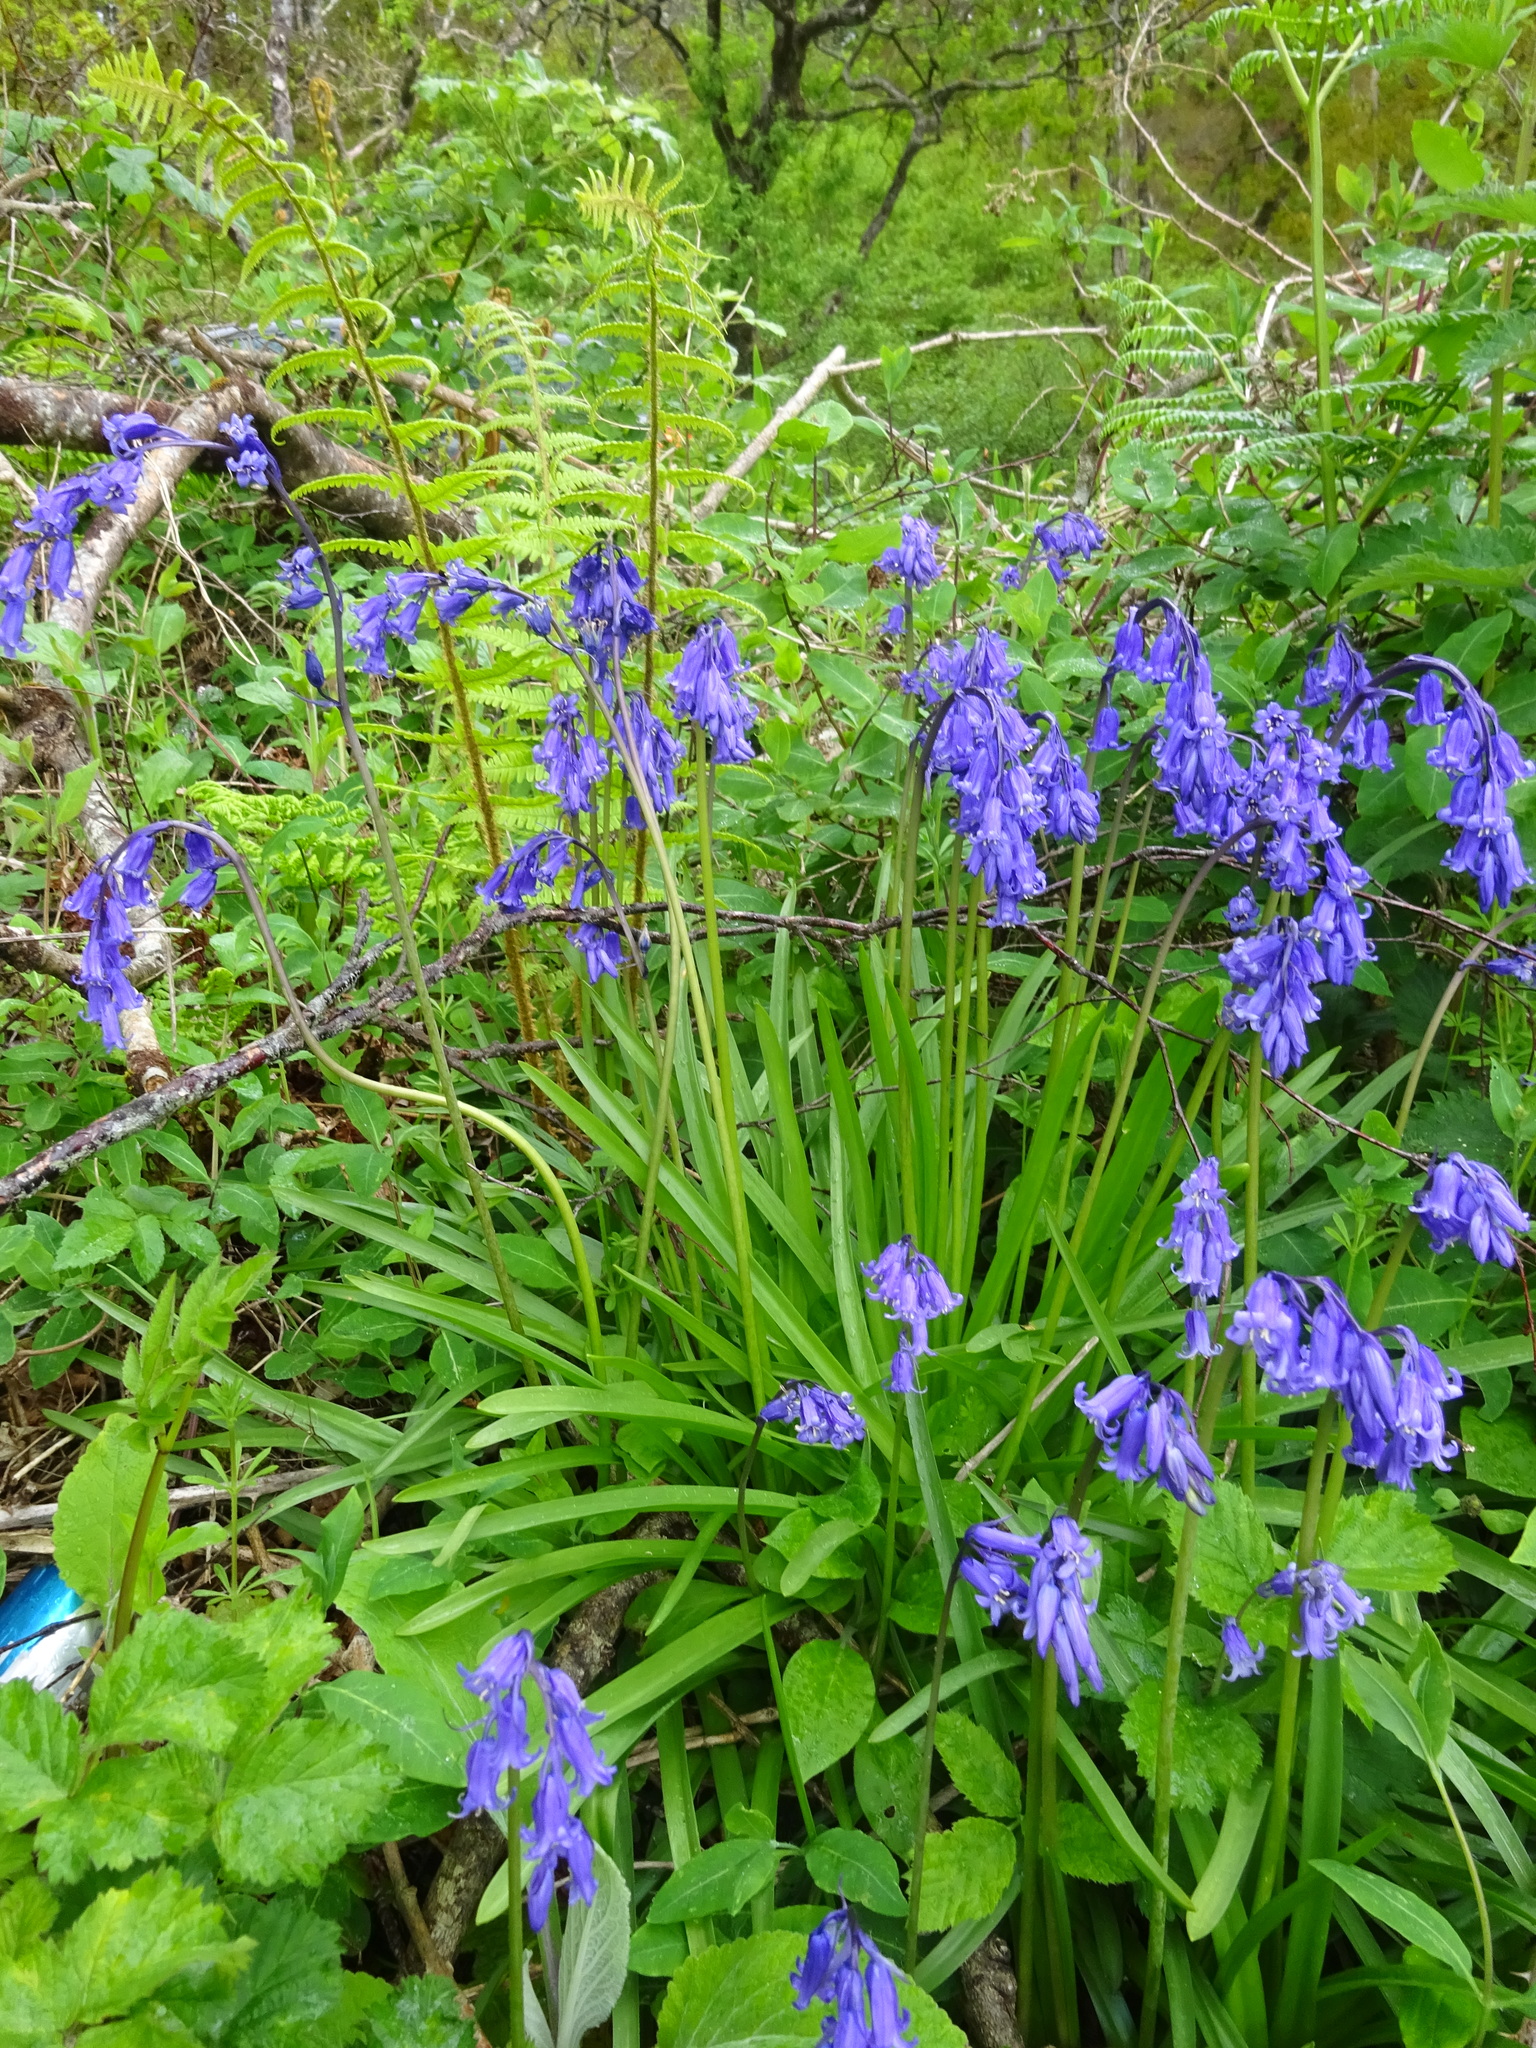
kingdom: Plantae
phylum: Tracheophyta
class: Liliopsida
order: Asparagales
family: Asparagaceae
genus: Hyacinthoides
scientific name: Hyacinthoides non-scripta
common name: Bluebell
